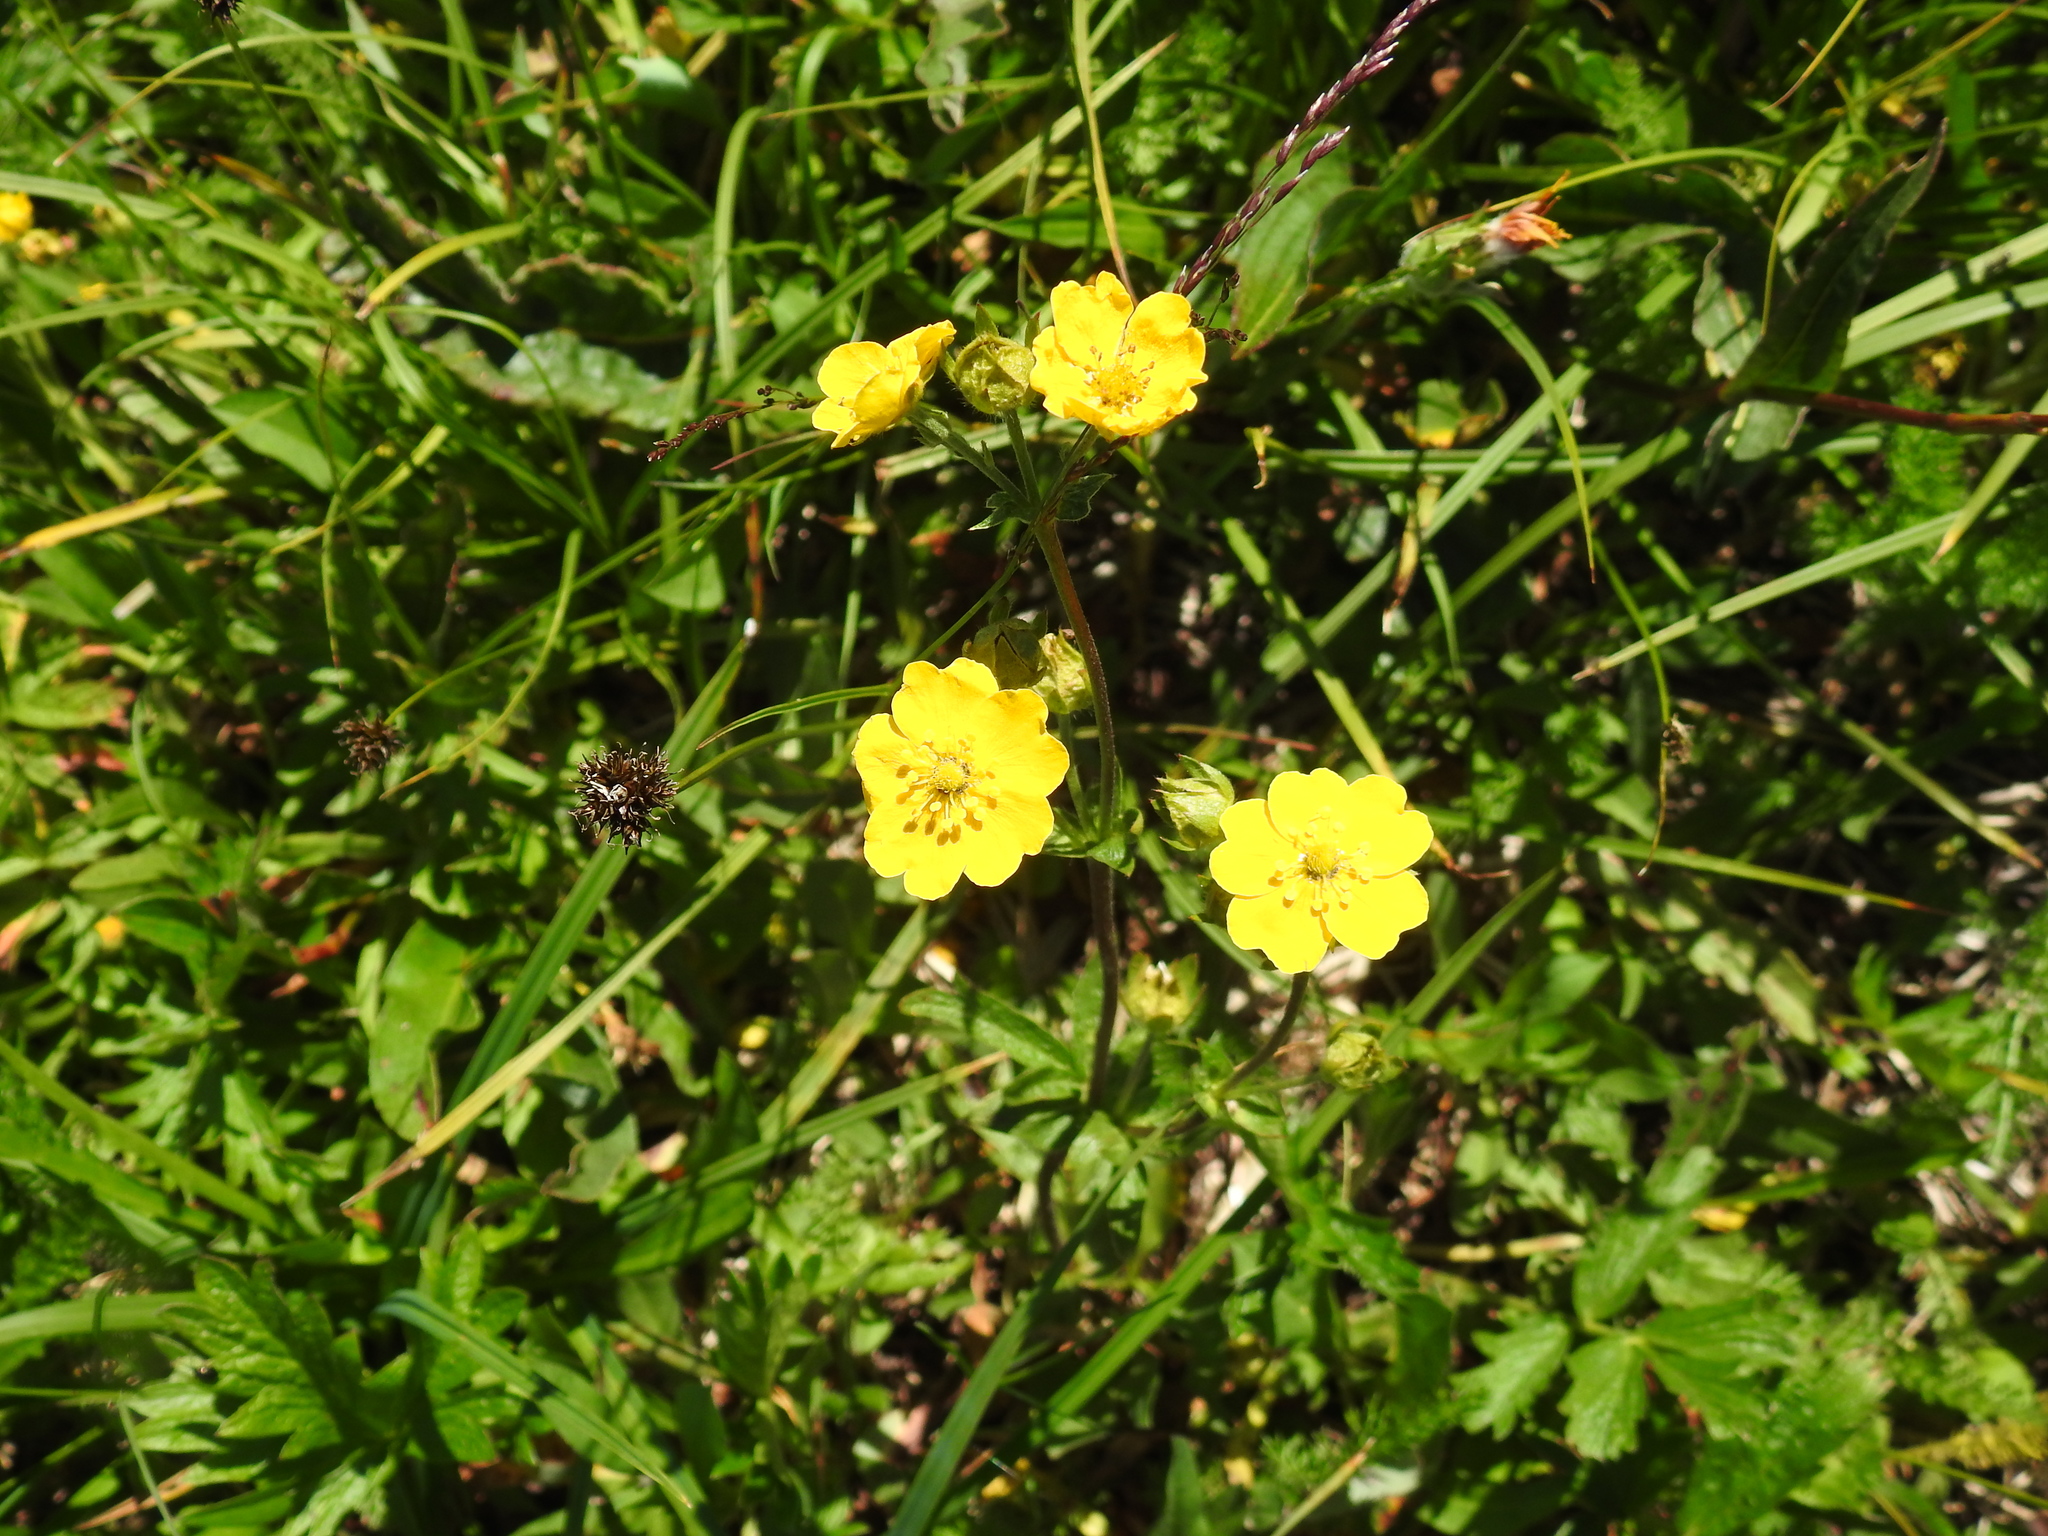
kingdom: Plantae
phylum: Tracheophyta
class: Magnoliopsida
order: Rosales
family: Rosaceae
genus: Potentilla
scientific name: Potentilla flabellifolia
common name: Mount rainier cinquefoil
